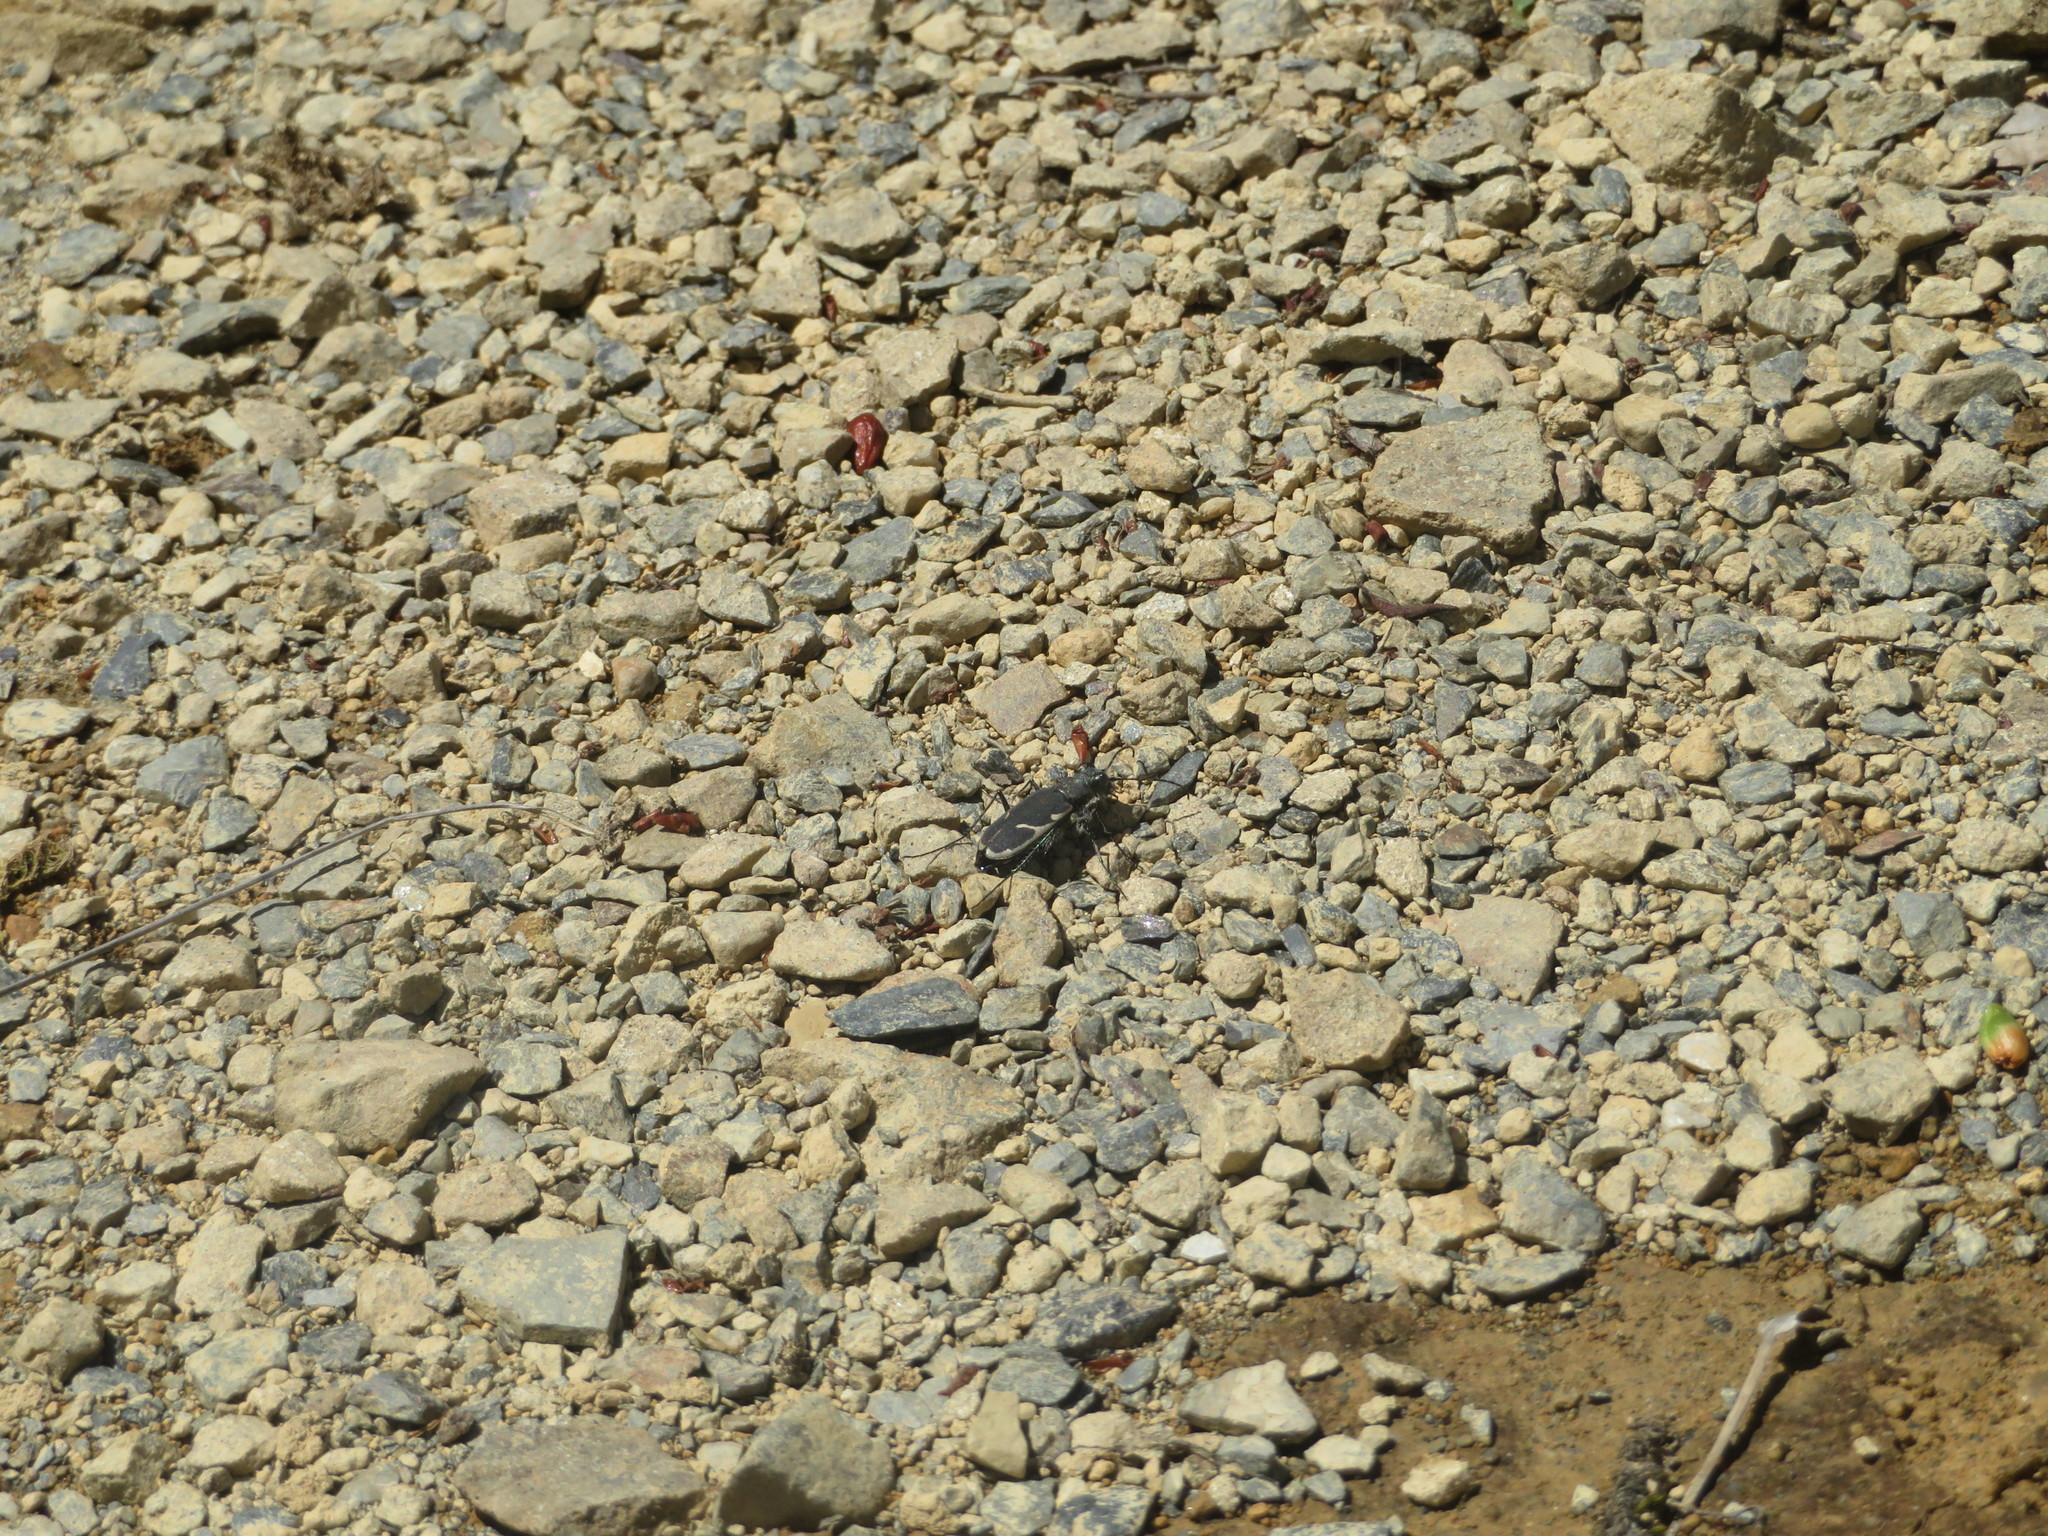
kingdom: Animalia
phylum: Arthropoda
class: Insecta
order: Coleoptera
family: Carabidae
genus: Zecicindela
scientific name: Zecicindela austromontana
